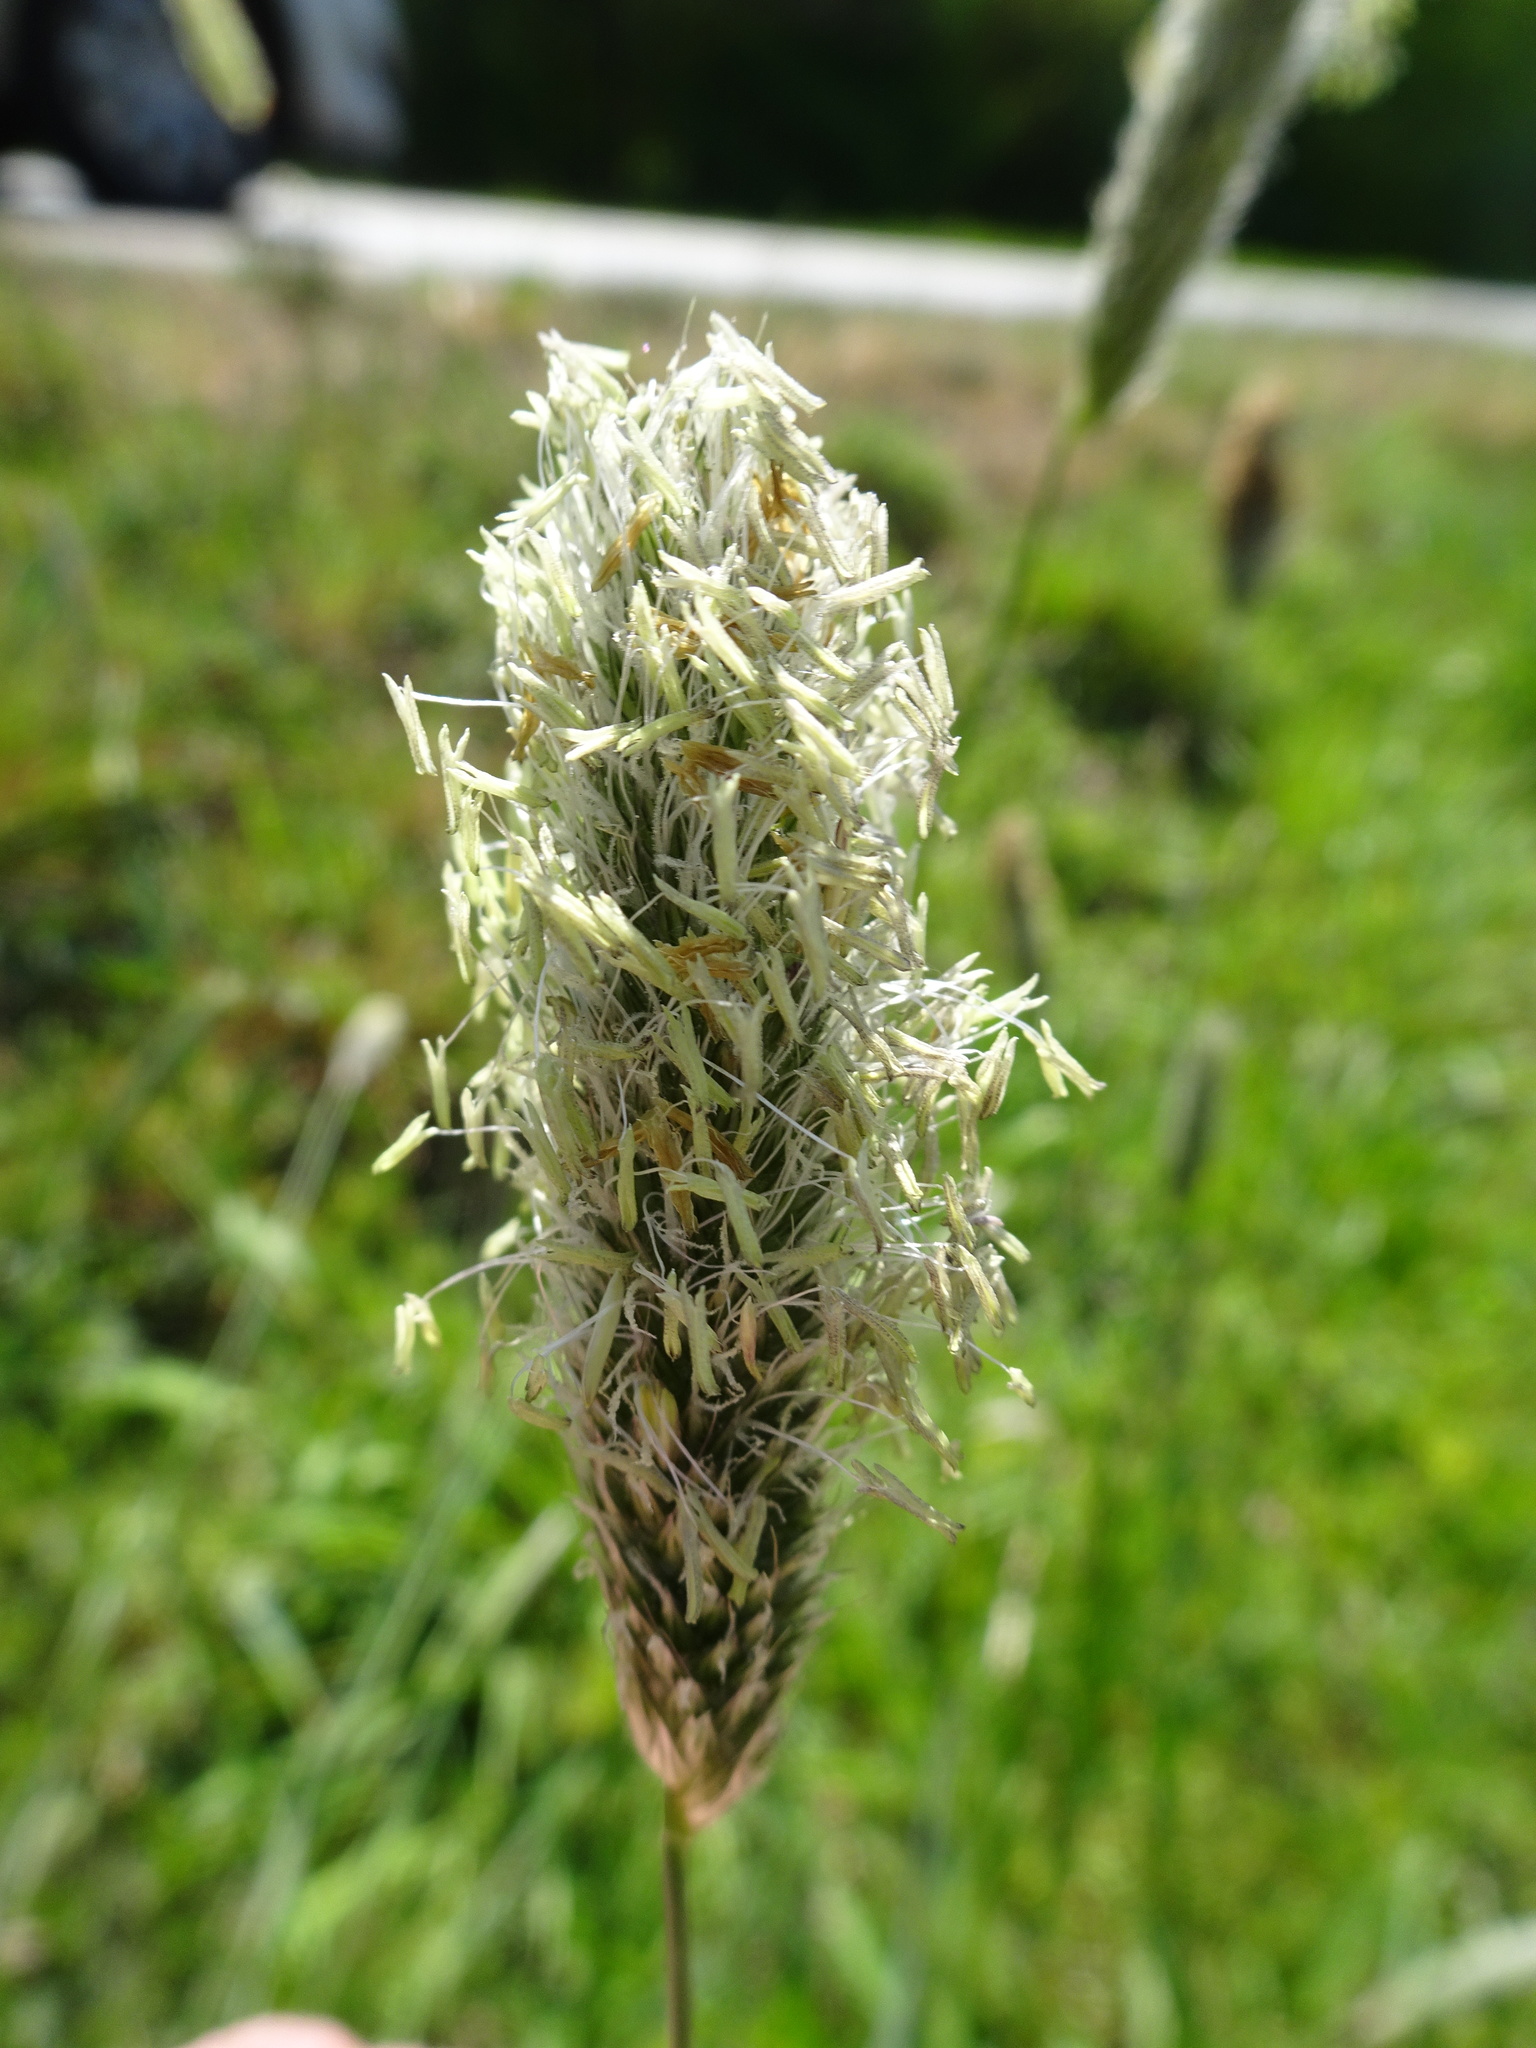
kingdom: Plantae
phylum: Tracheophyta
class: Liliopsida
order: Poales
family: Poaceae
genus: Alopecurus
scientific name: Alopecurus pratensis
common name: Meadow foxtail
